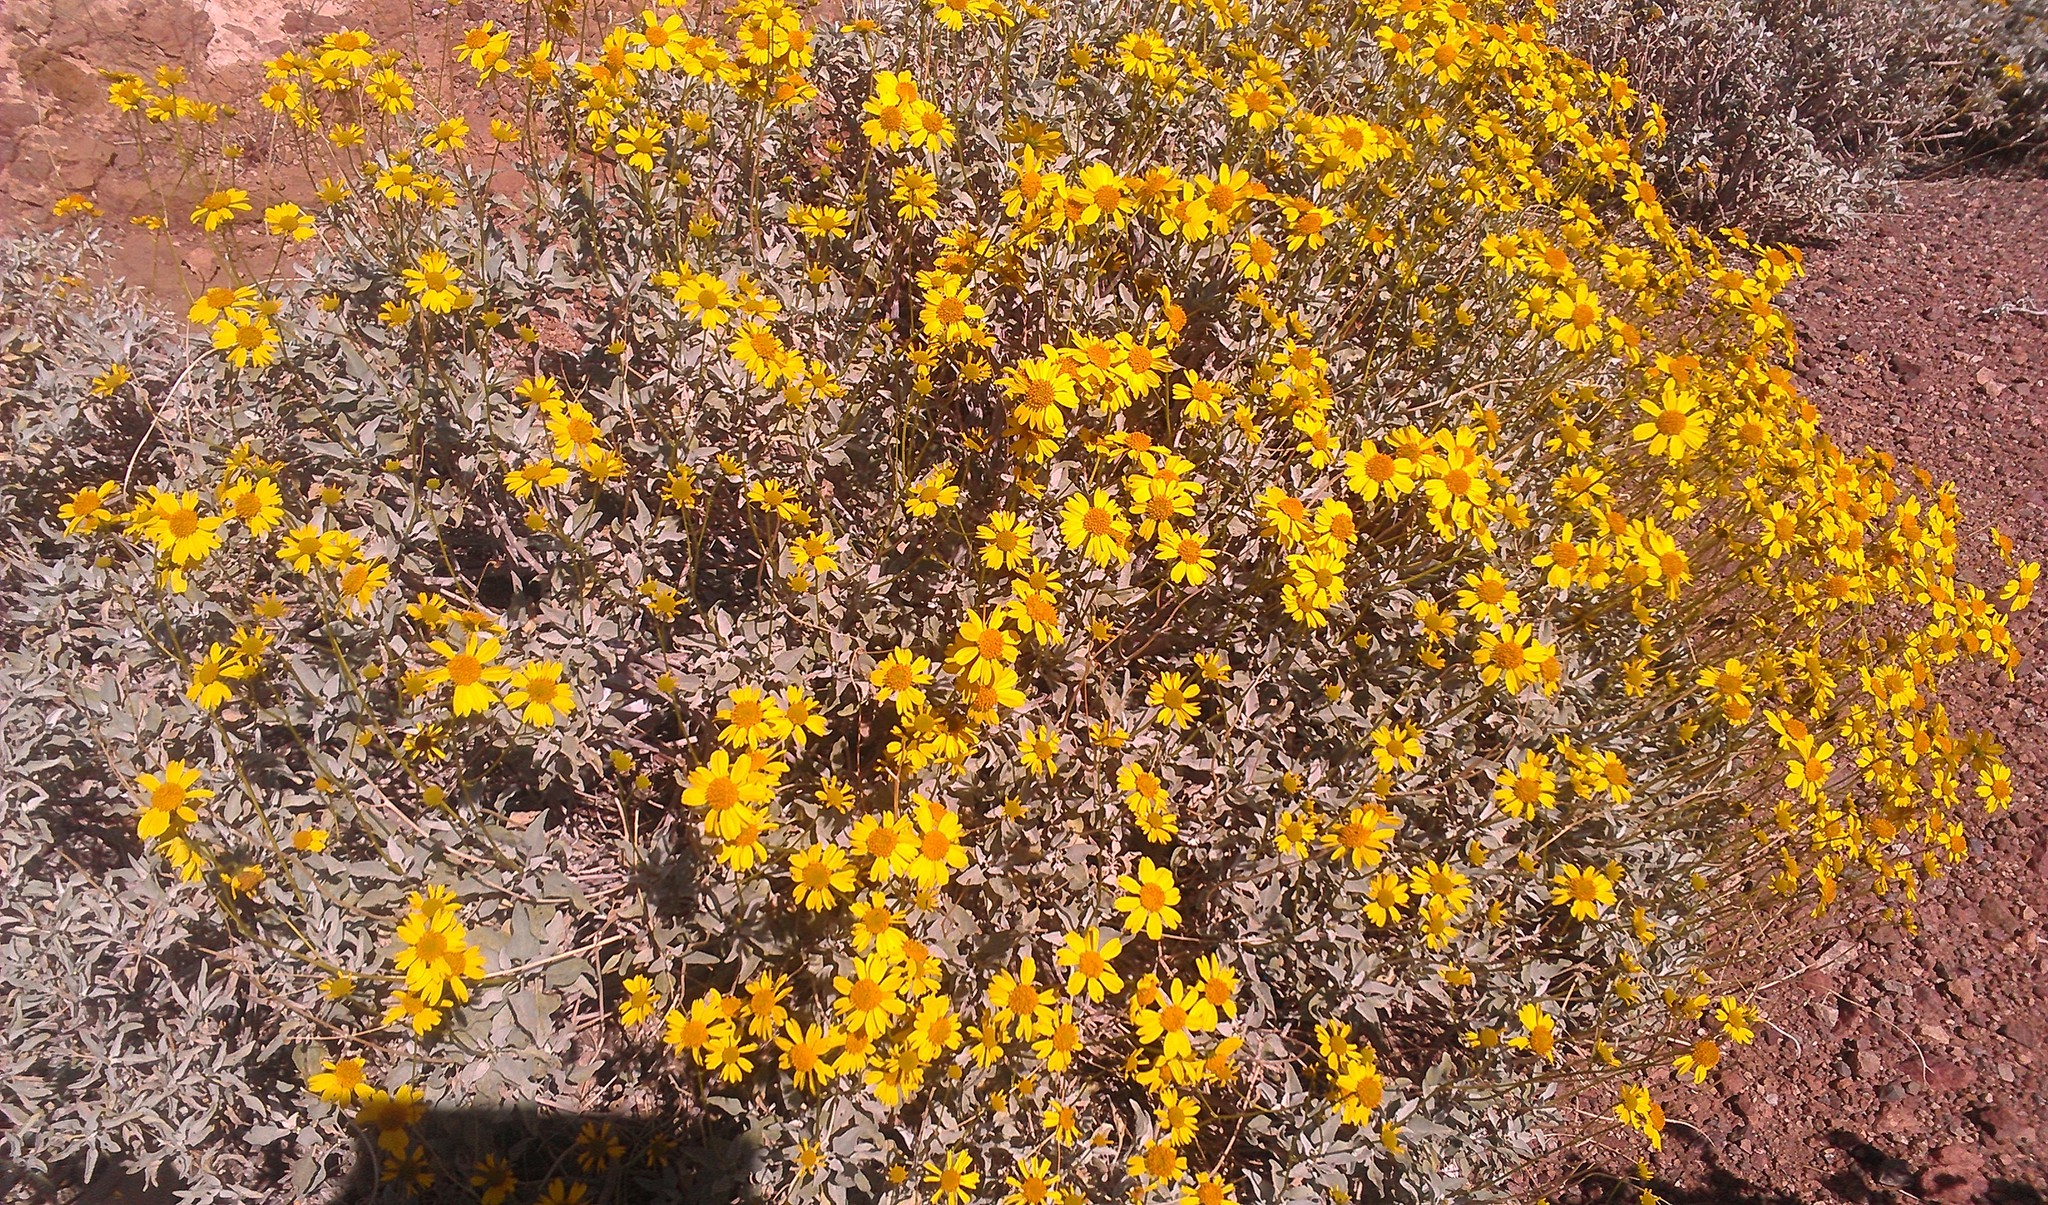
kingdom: Plantae
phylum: Tracheophyta
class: Magnoliopsida
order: Asterales
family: Asteraceae
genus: Encelia
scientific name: Encelia farinosa
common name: Brittlebush
